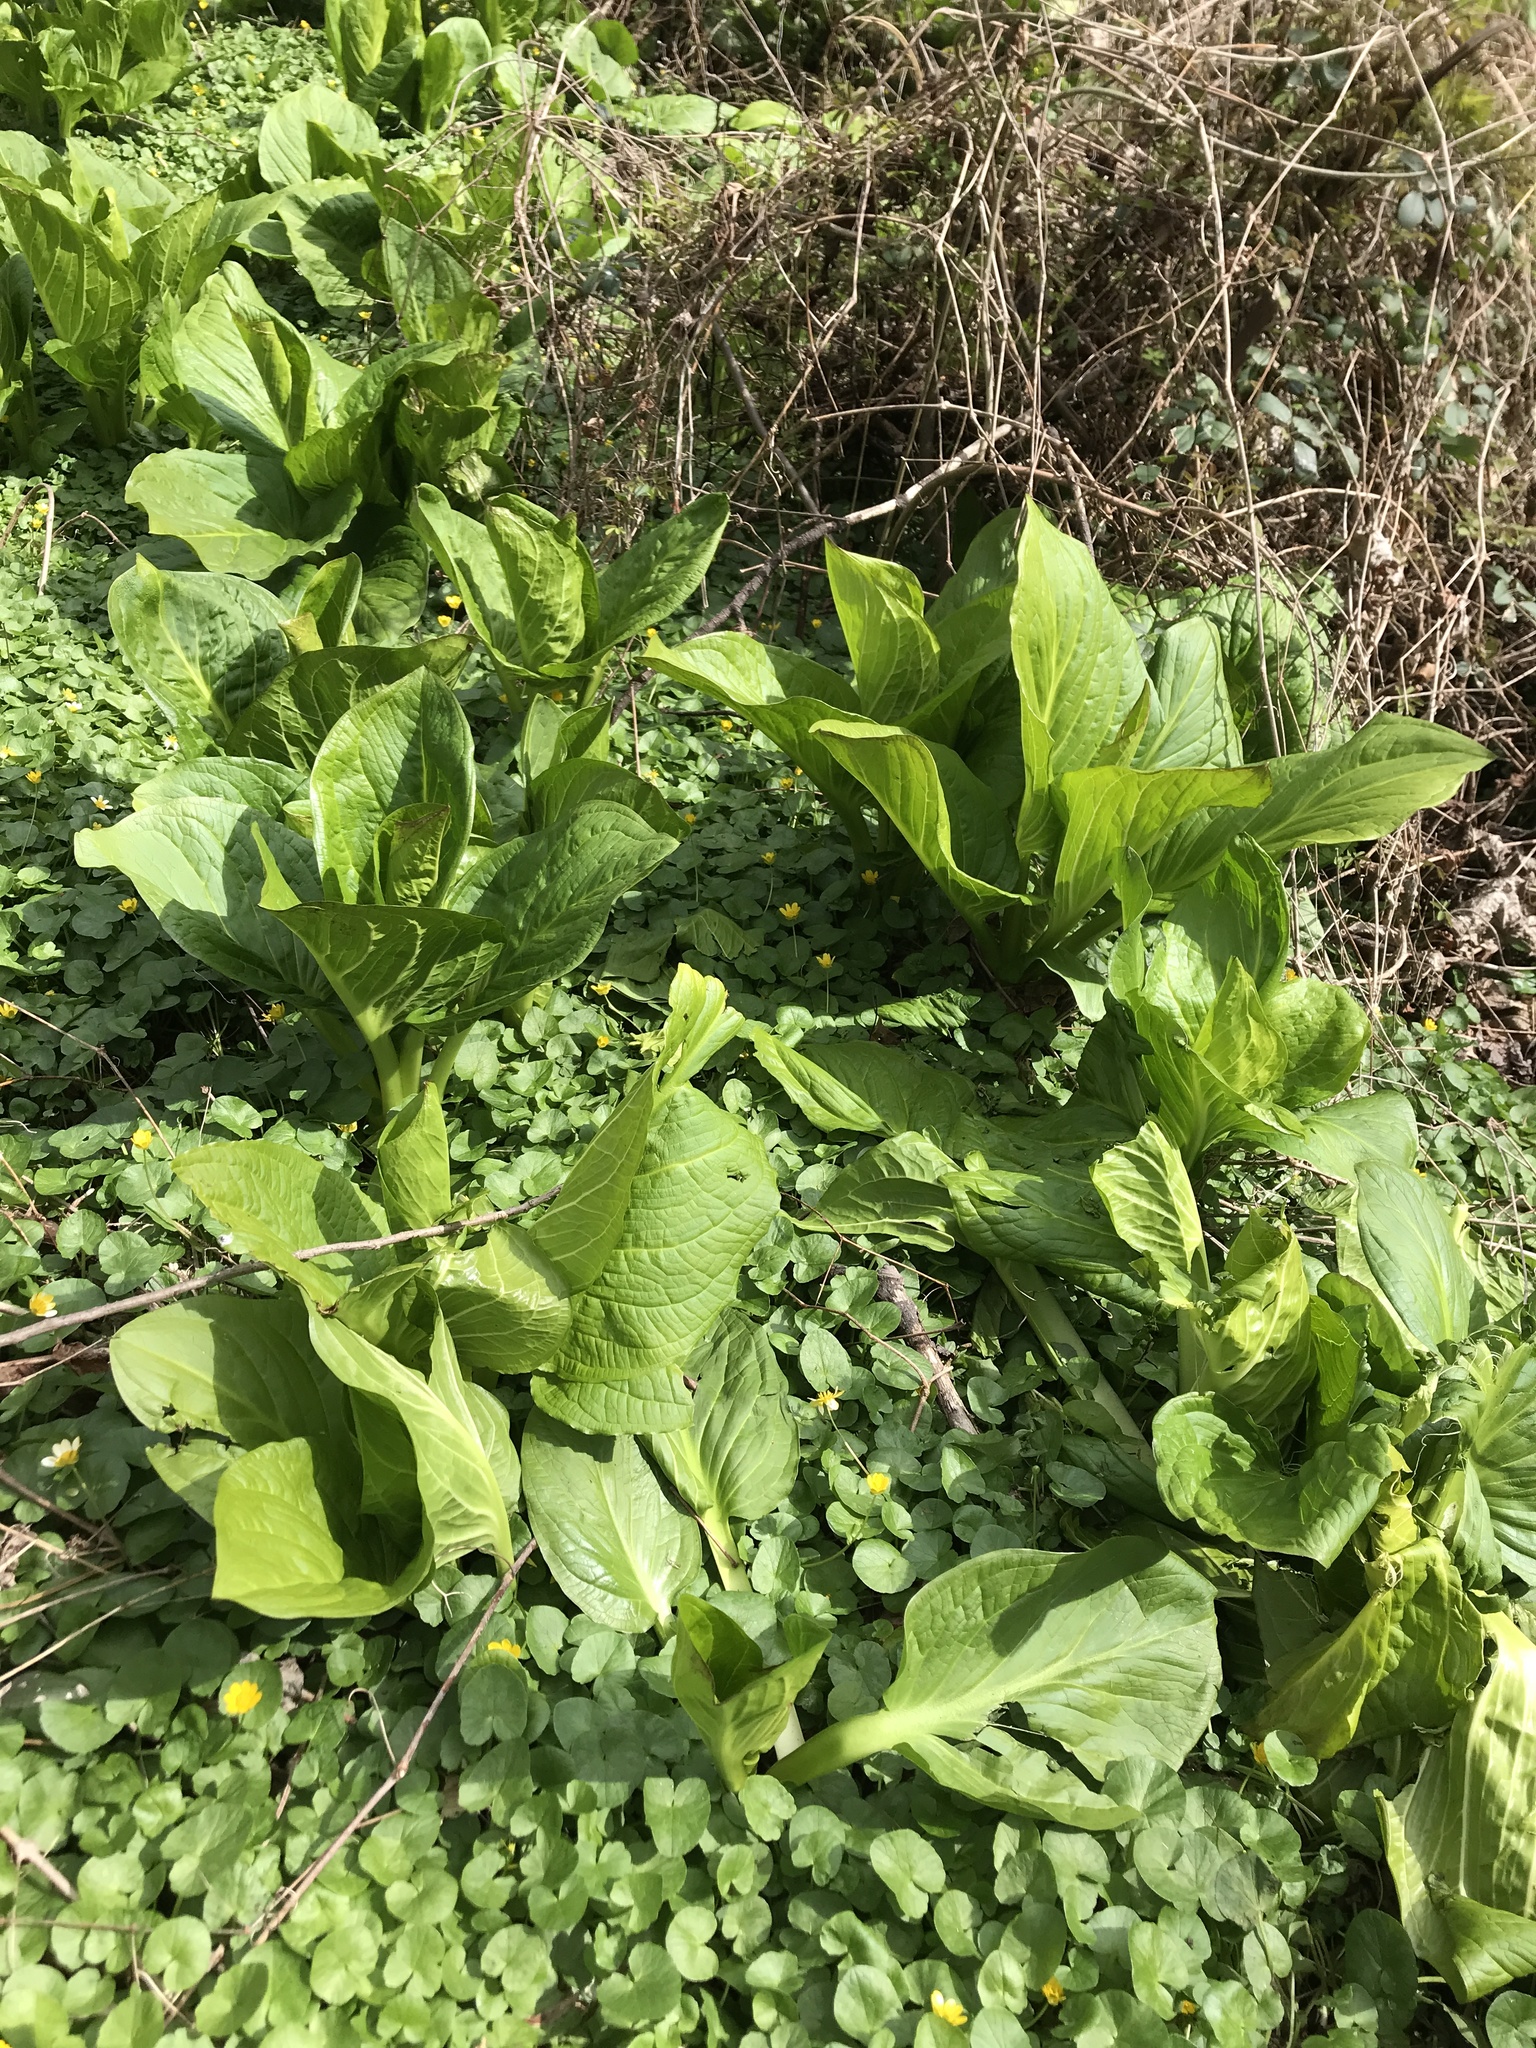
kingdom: Plantae
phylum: Tracheophyta
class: Liliopsida
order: Alismatales
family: Araceae
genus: Symplocarpus
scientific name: Symplocarpus foetidus
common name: Eastern skunk cabbage
